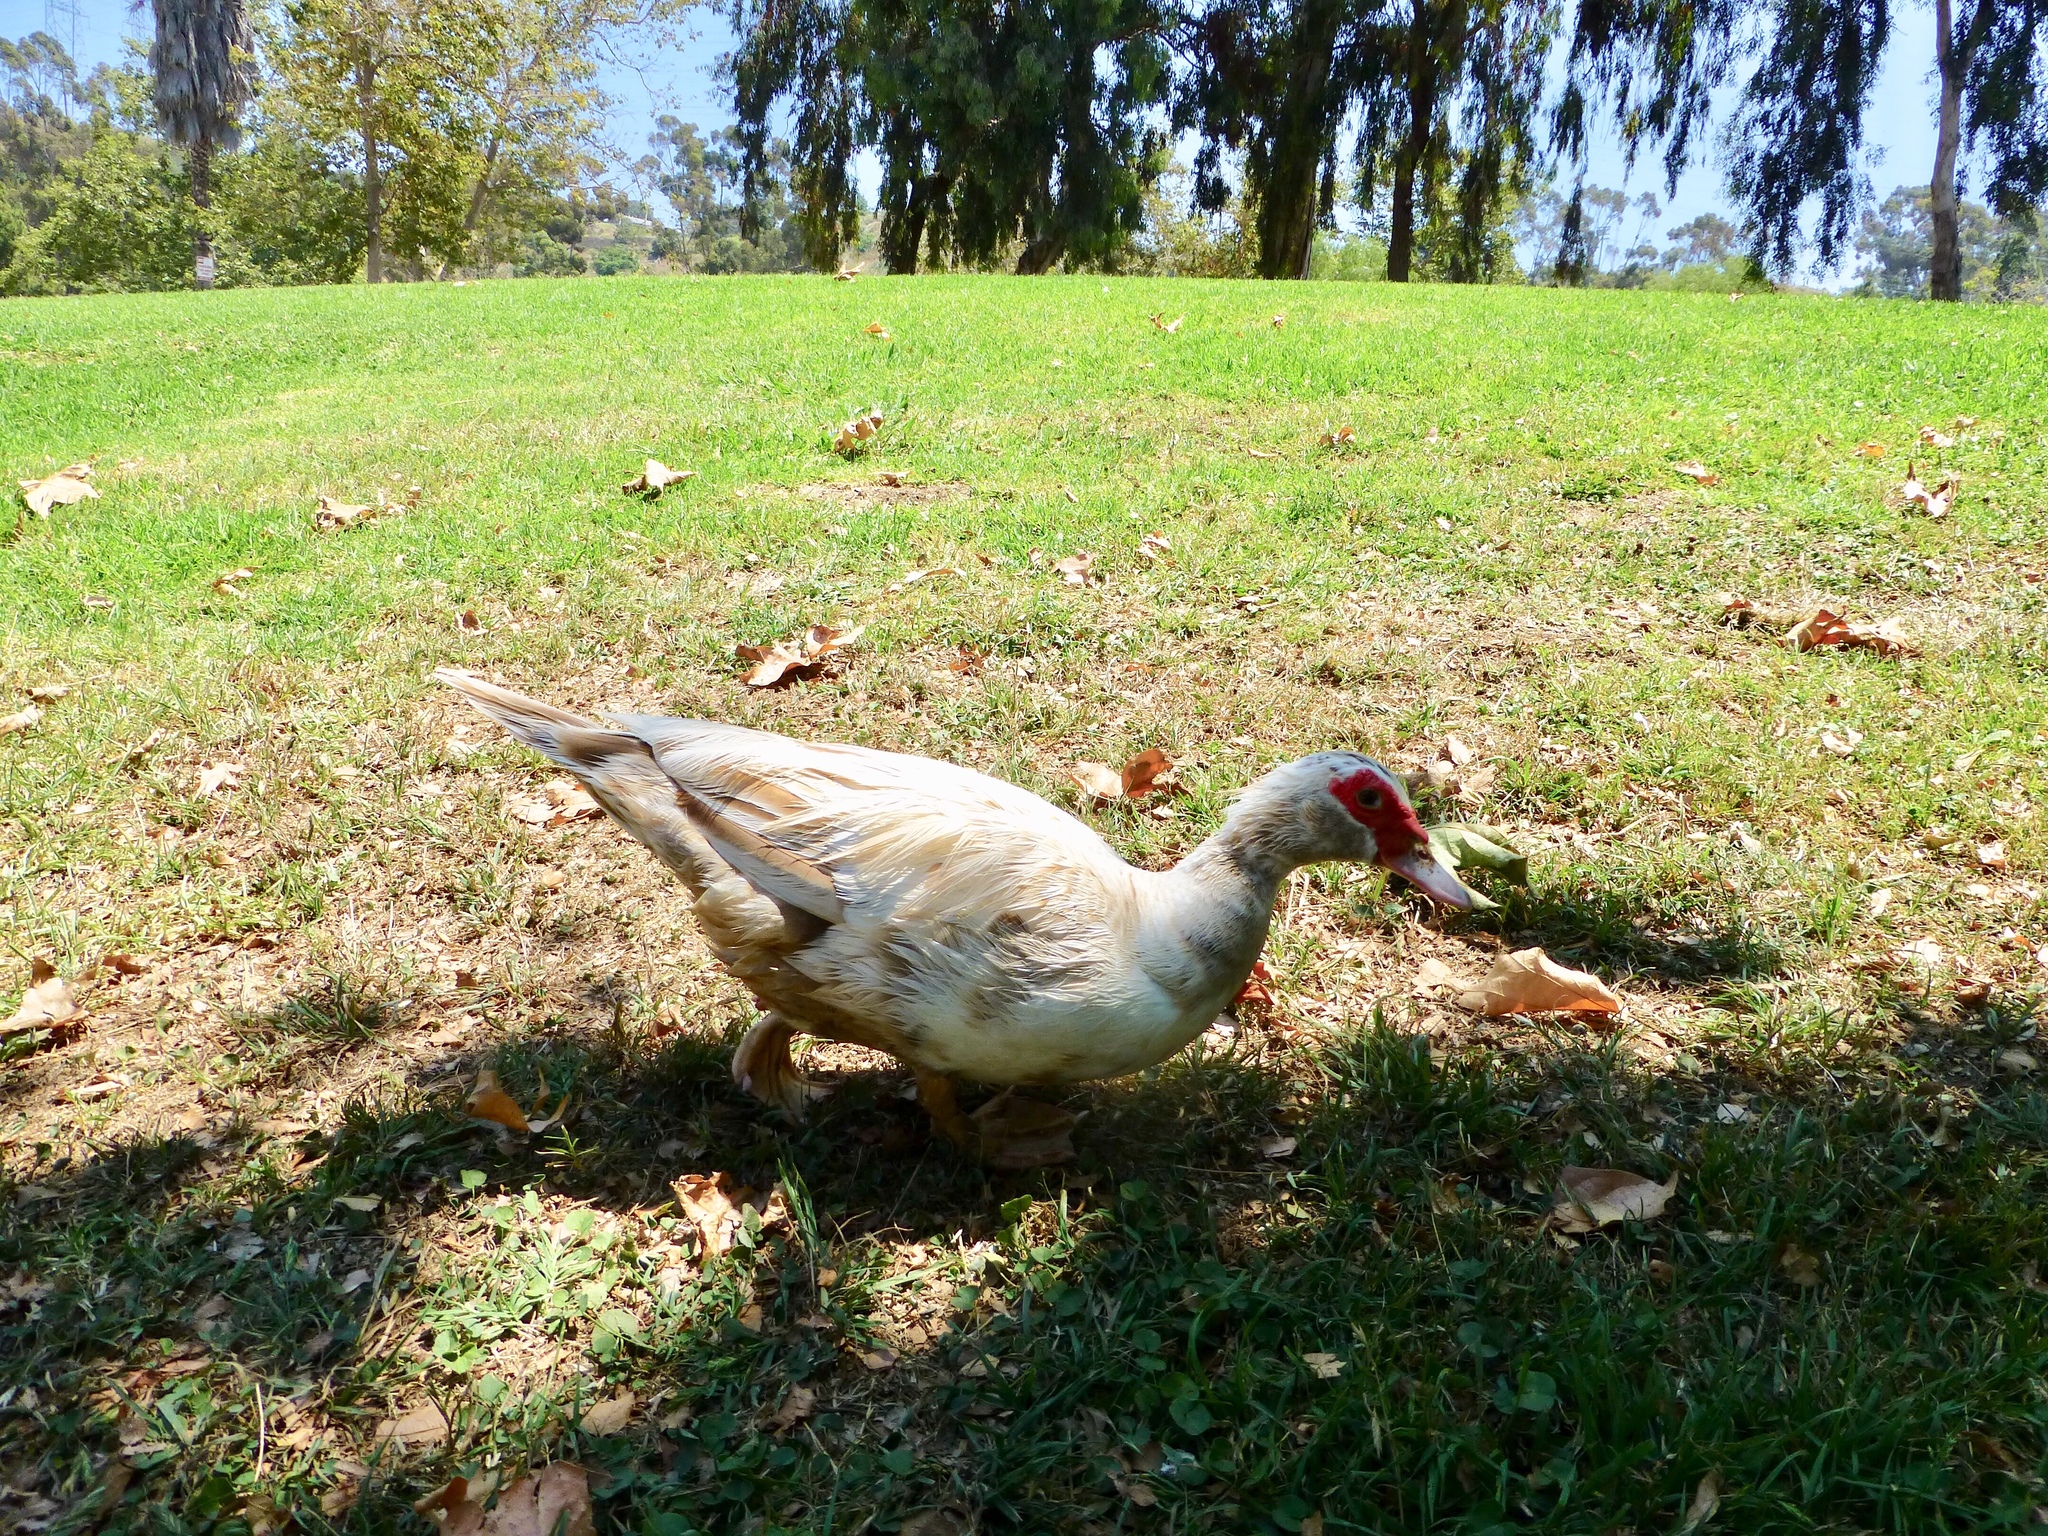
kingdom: Animalia
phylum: Chordata
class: Aves
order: Anseriformes
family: Anatidae
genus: Cairina
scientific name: Cairina moschata
